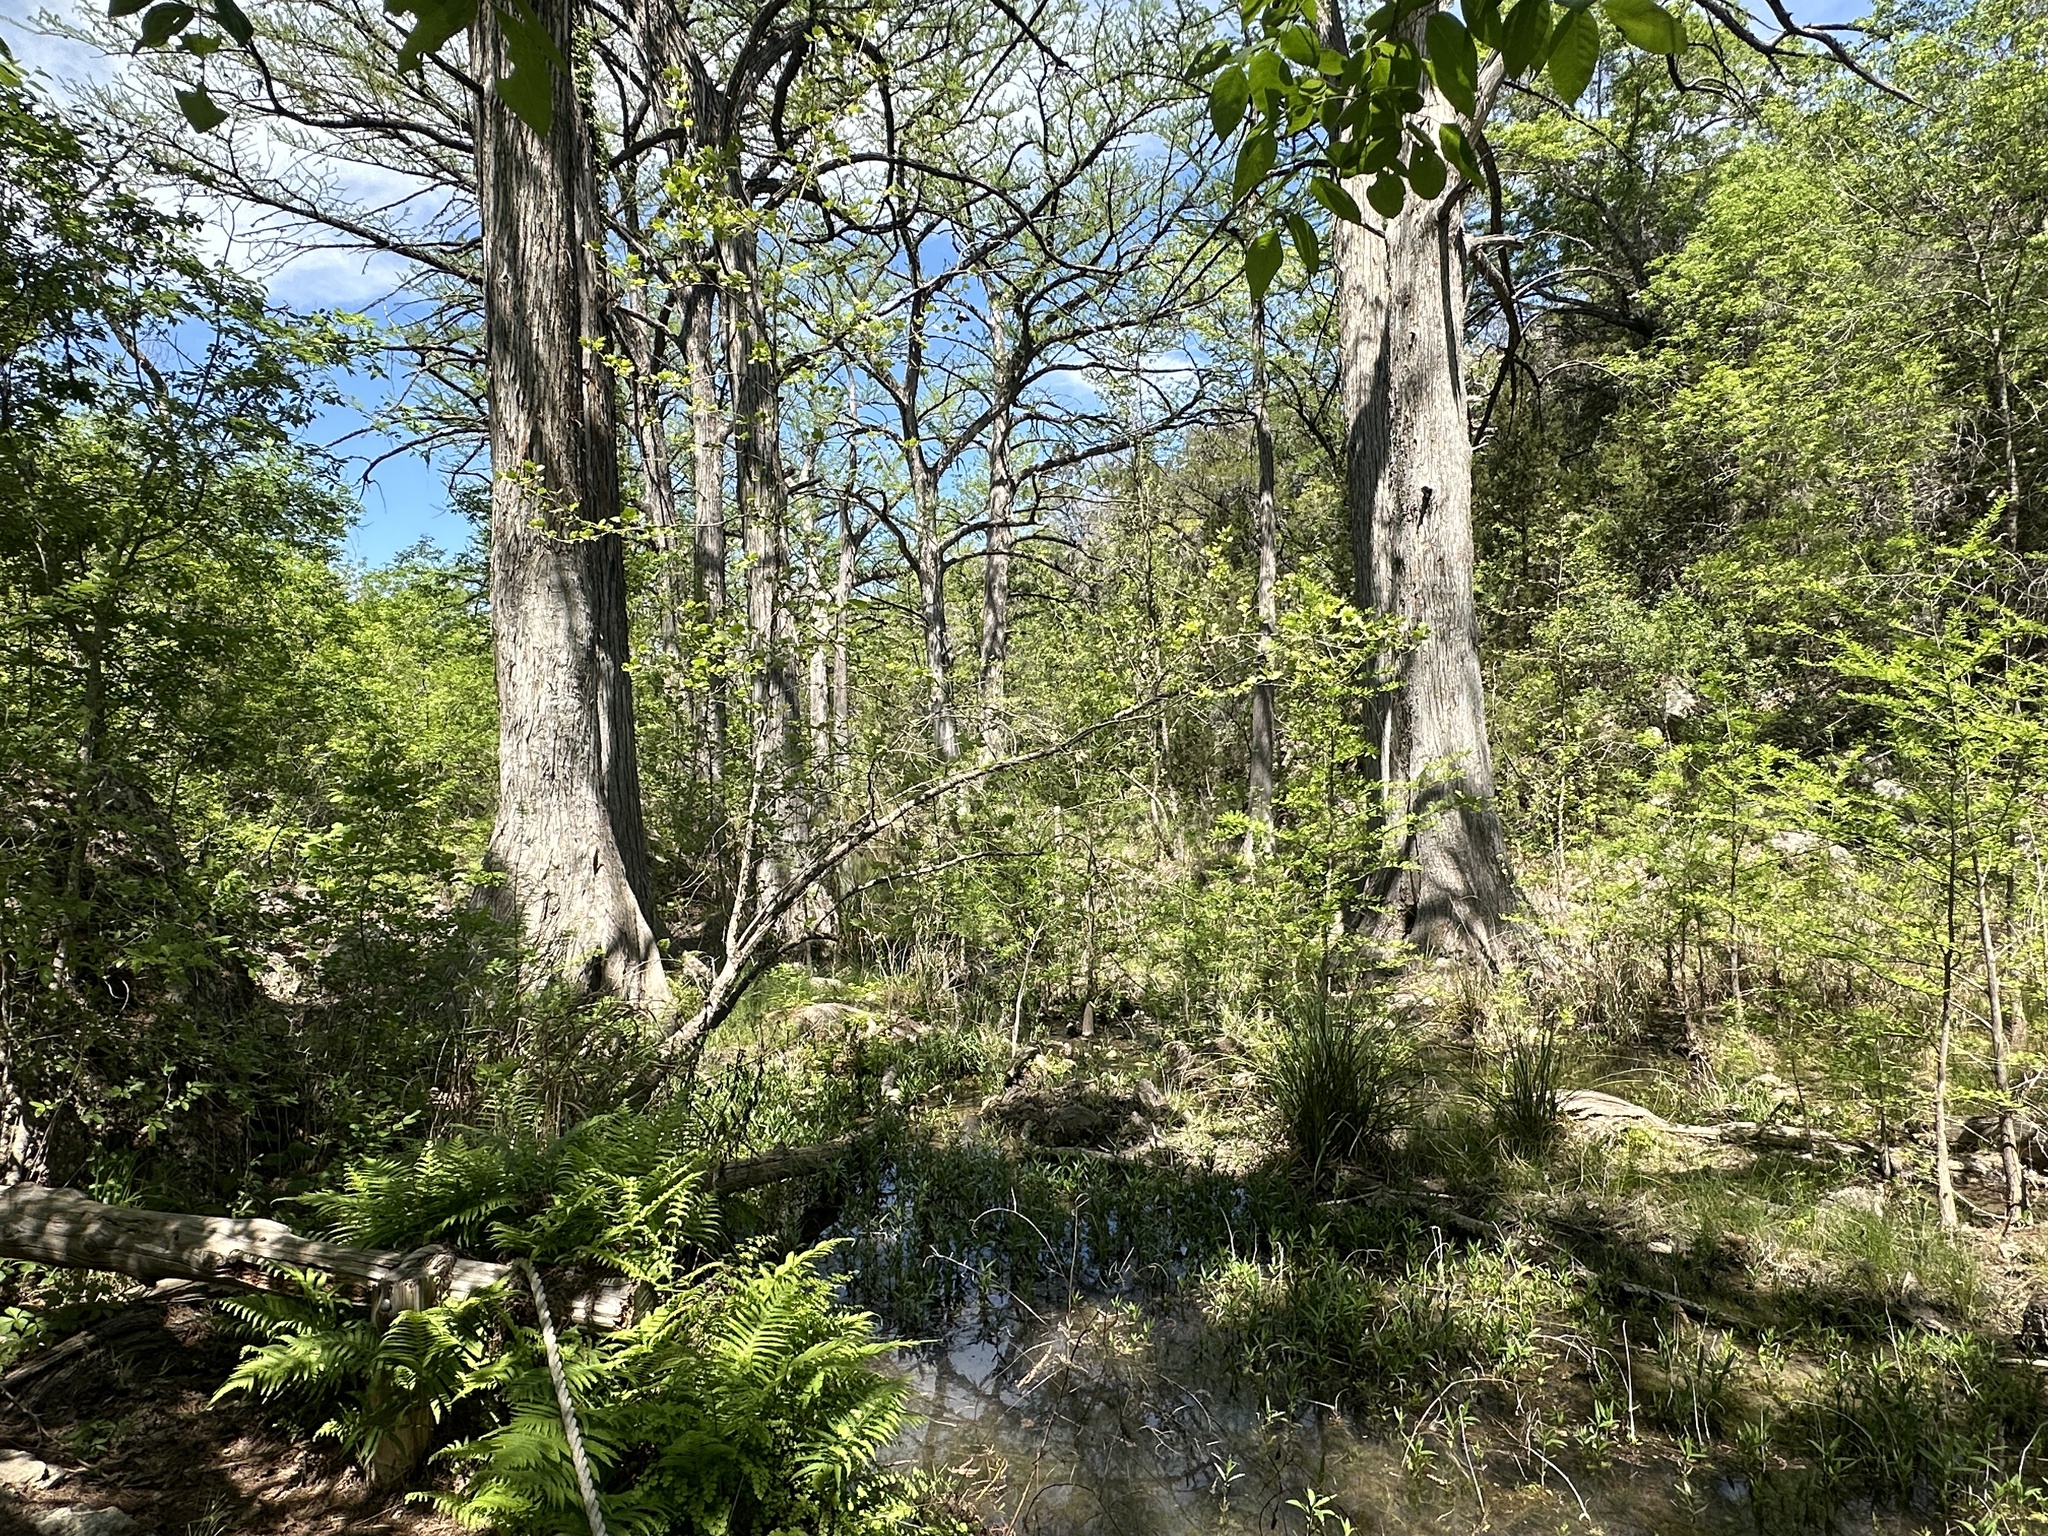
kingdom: Plantae
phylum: Tracheophyta
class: Pinopsida
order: Pinales
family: Cupressaceae
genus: Taxodium
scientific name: Taxodium distichum
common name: Bald cypress
